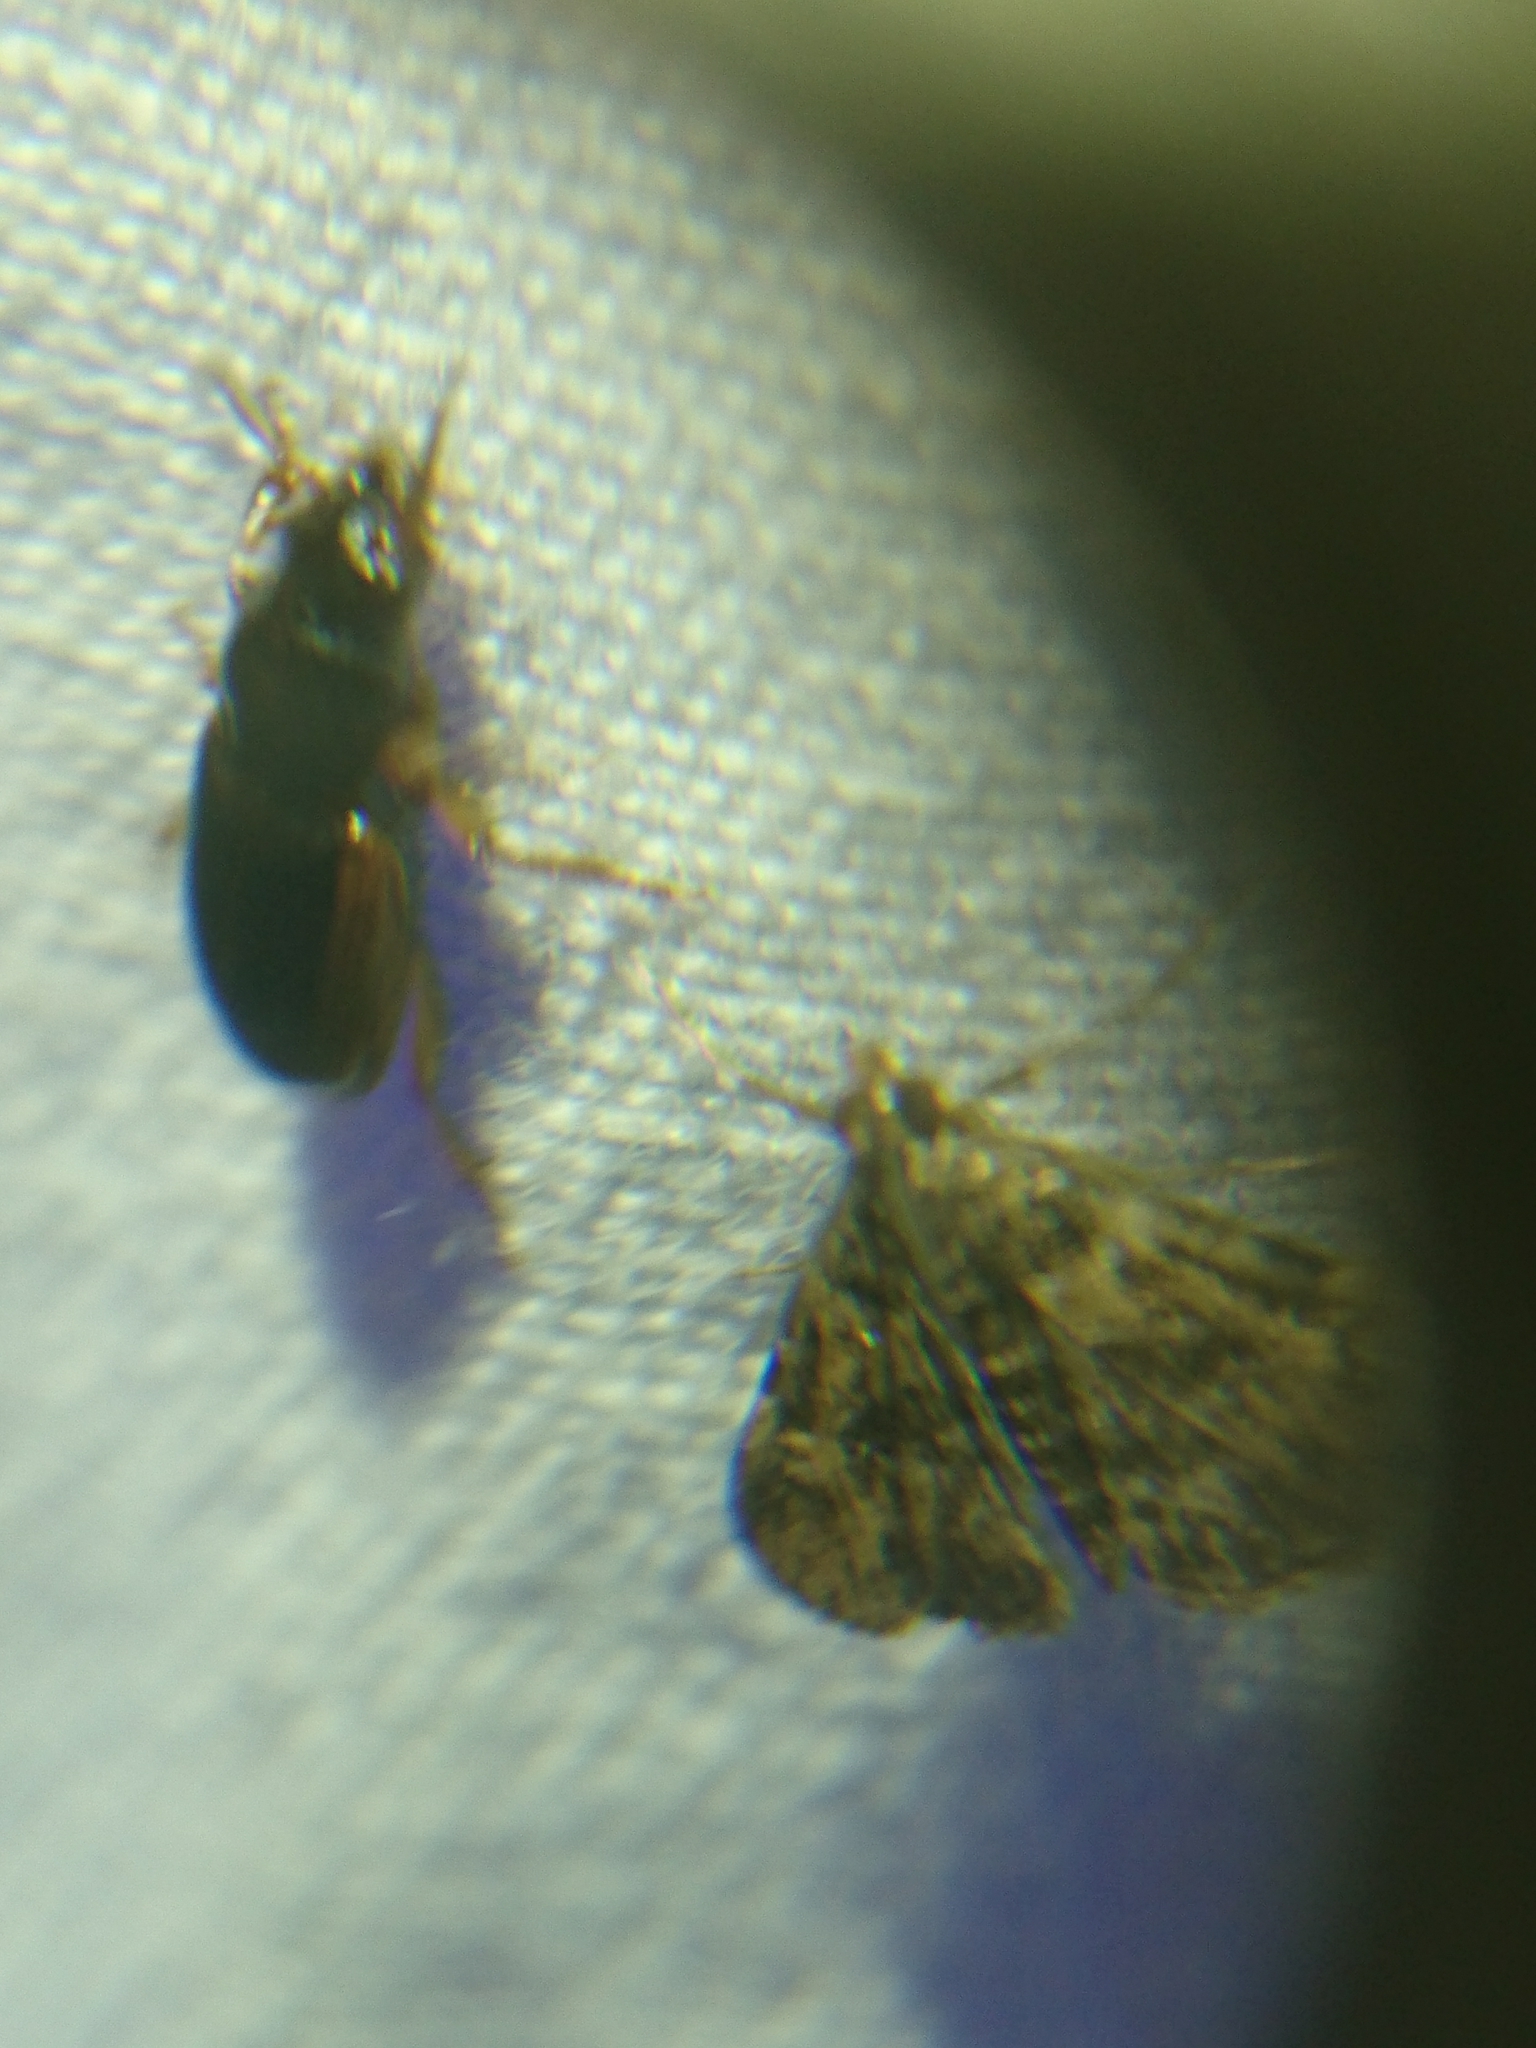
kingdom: Animalia
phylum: Arthropoda
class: Insecta
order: Lepidoptera
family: Crambidae
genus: Elophila
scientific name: Elophila obliteralis
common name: Waterlily leafcutter moth
